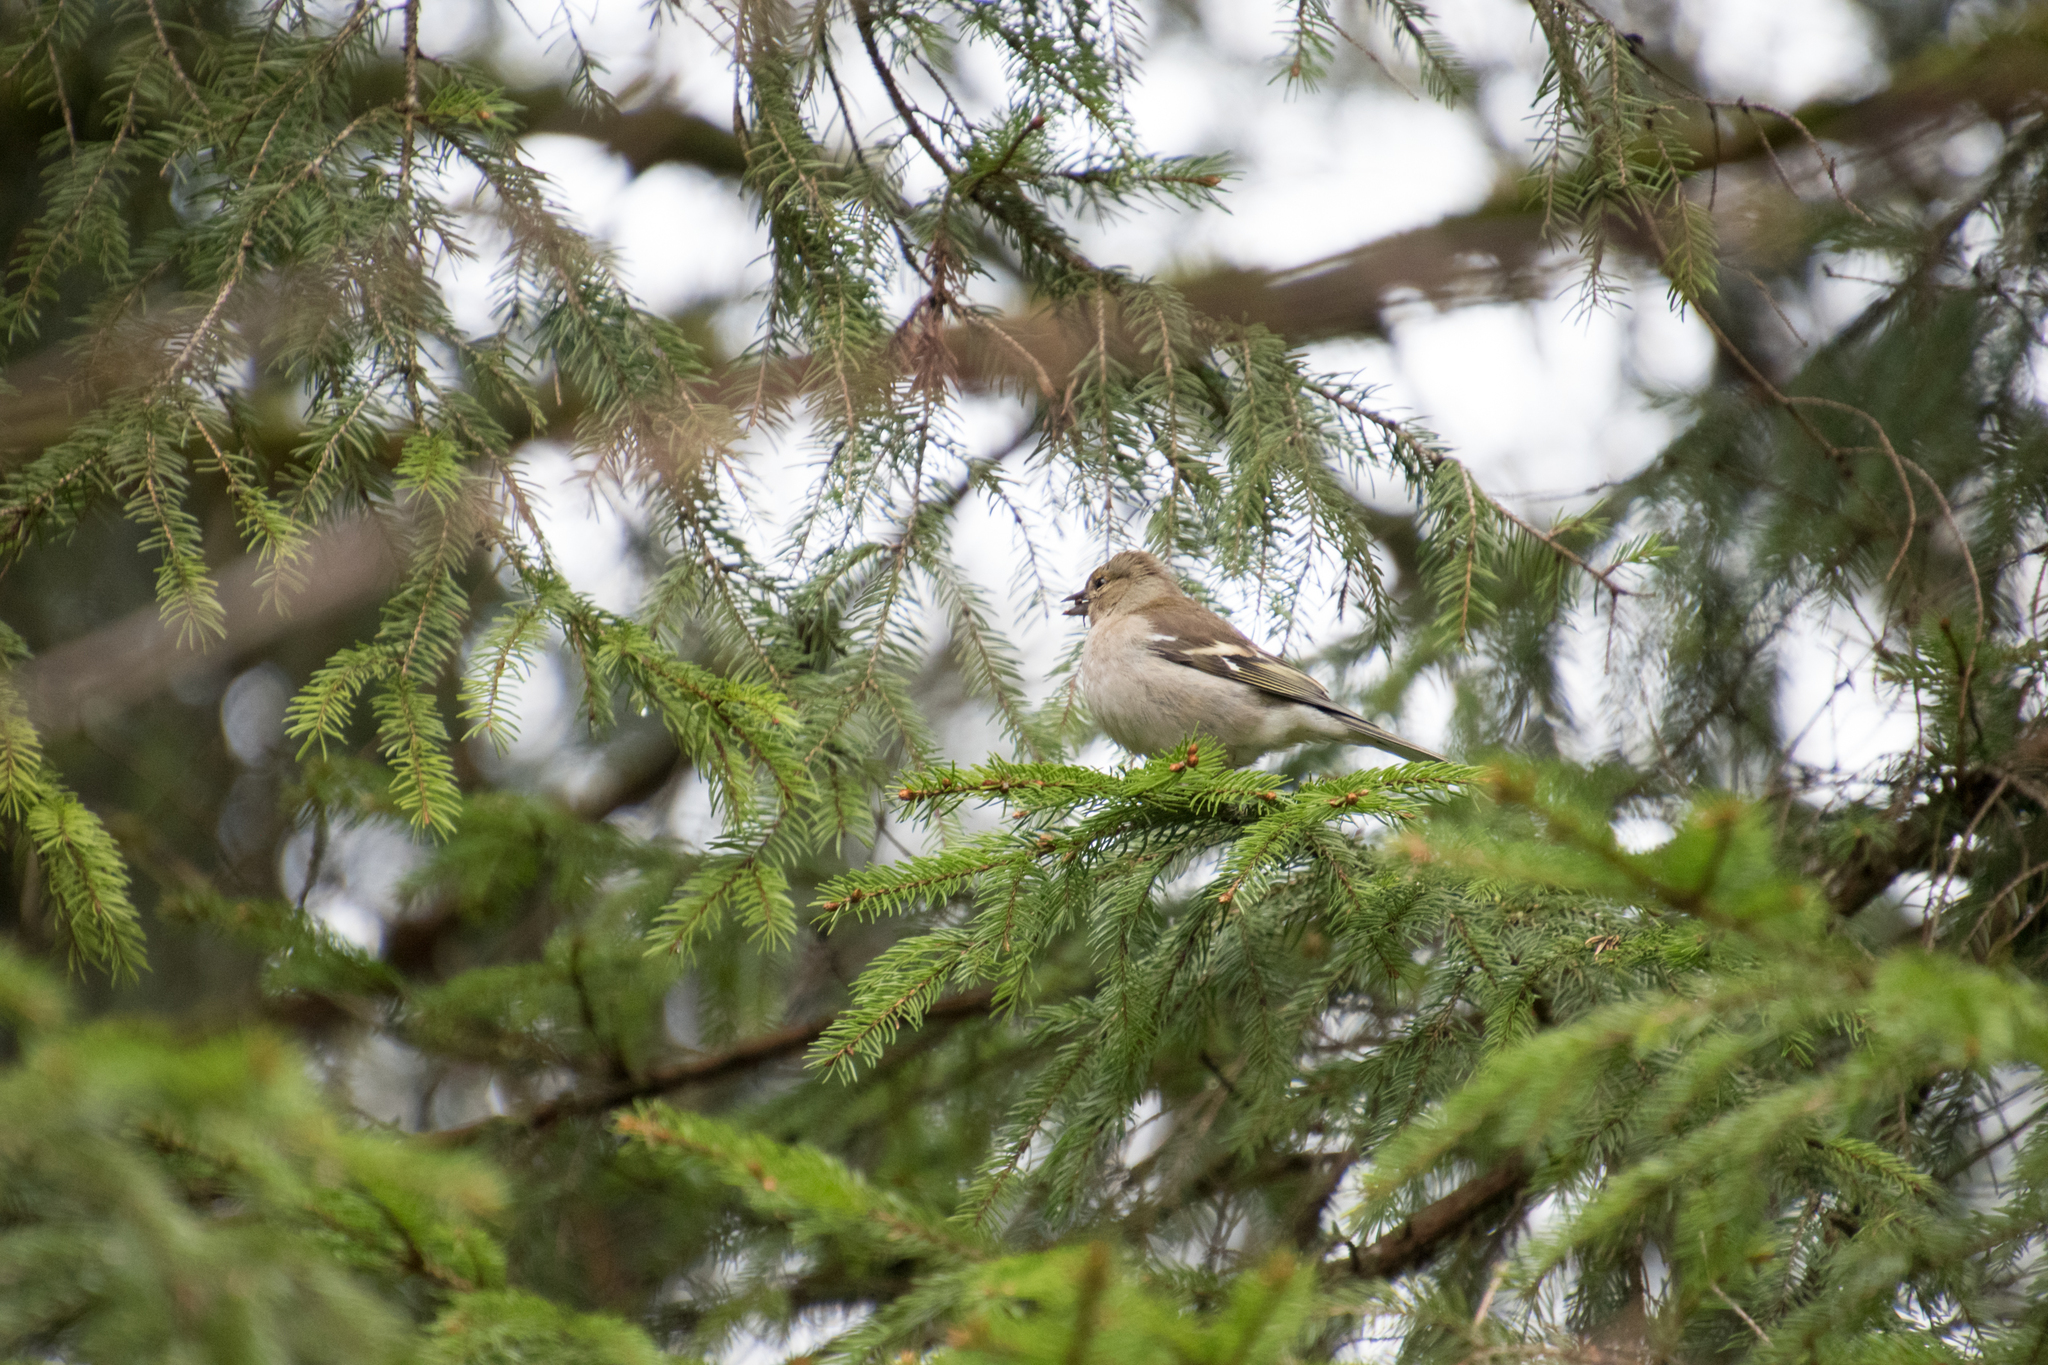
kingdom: Animalia
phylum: Chordata
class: Aves
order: Passeriformes
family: Fringillidae
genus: Fringilla
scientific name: Fringilla coelebs
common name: Common chaffinch
